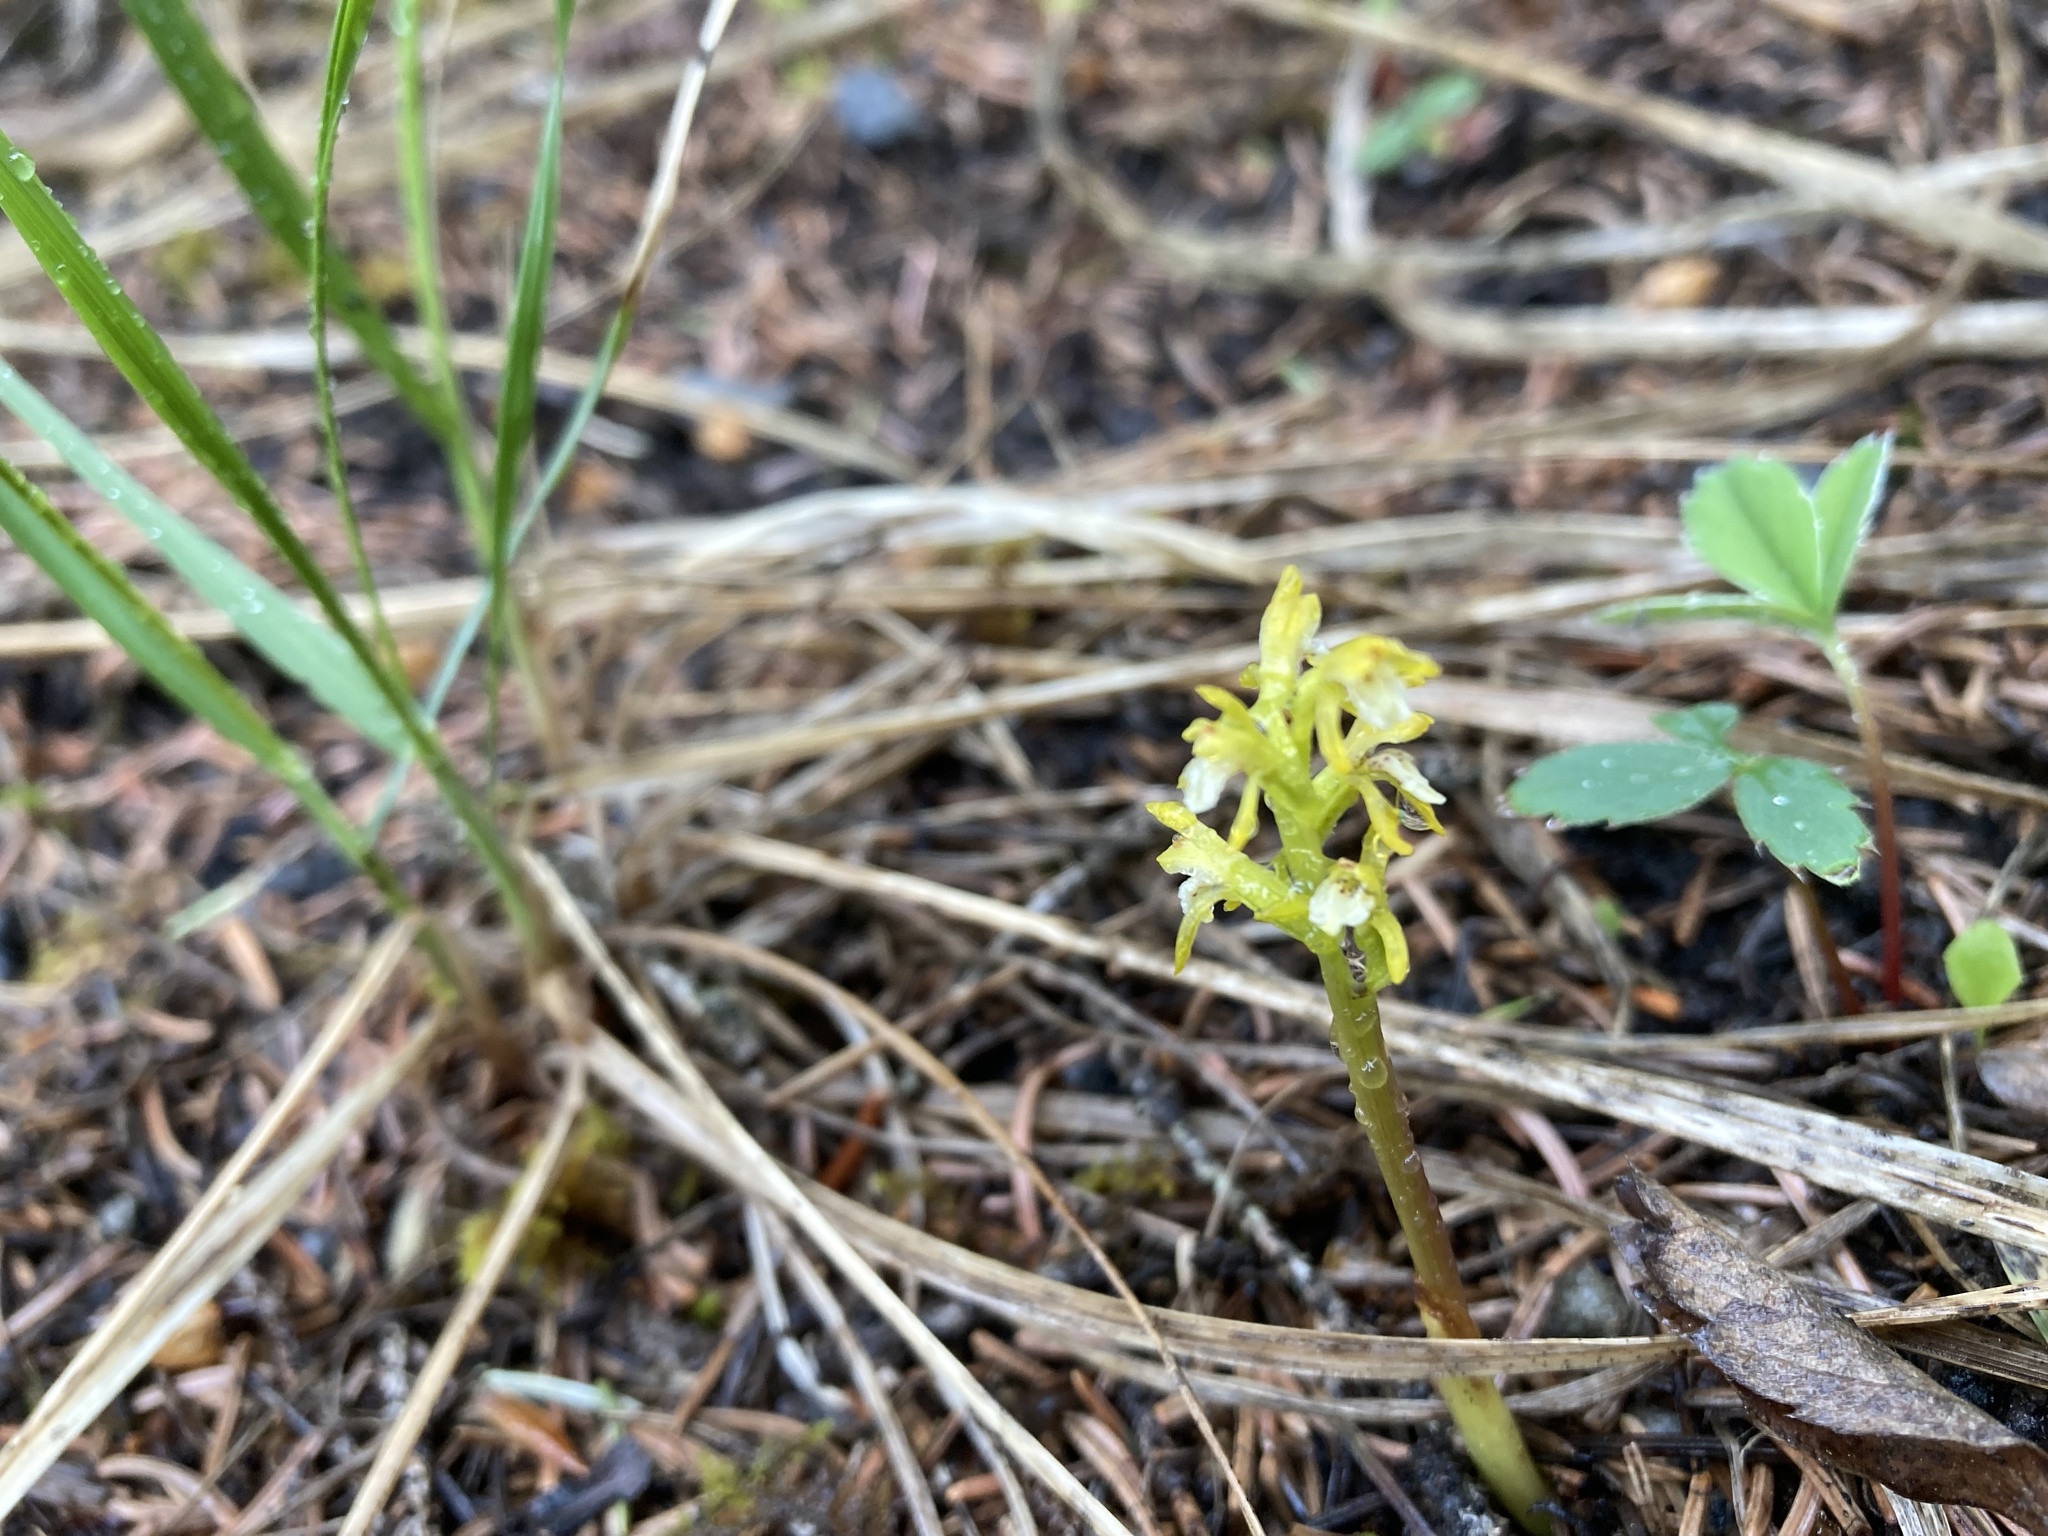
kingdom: Plantae
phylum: Tracheophyta
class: Liliopsida
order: Asparagales
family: Orchidaceae
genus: Corallorhiza
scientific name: Corallorhiza trifida
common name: Yellow coralroot
